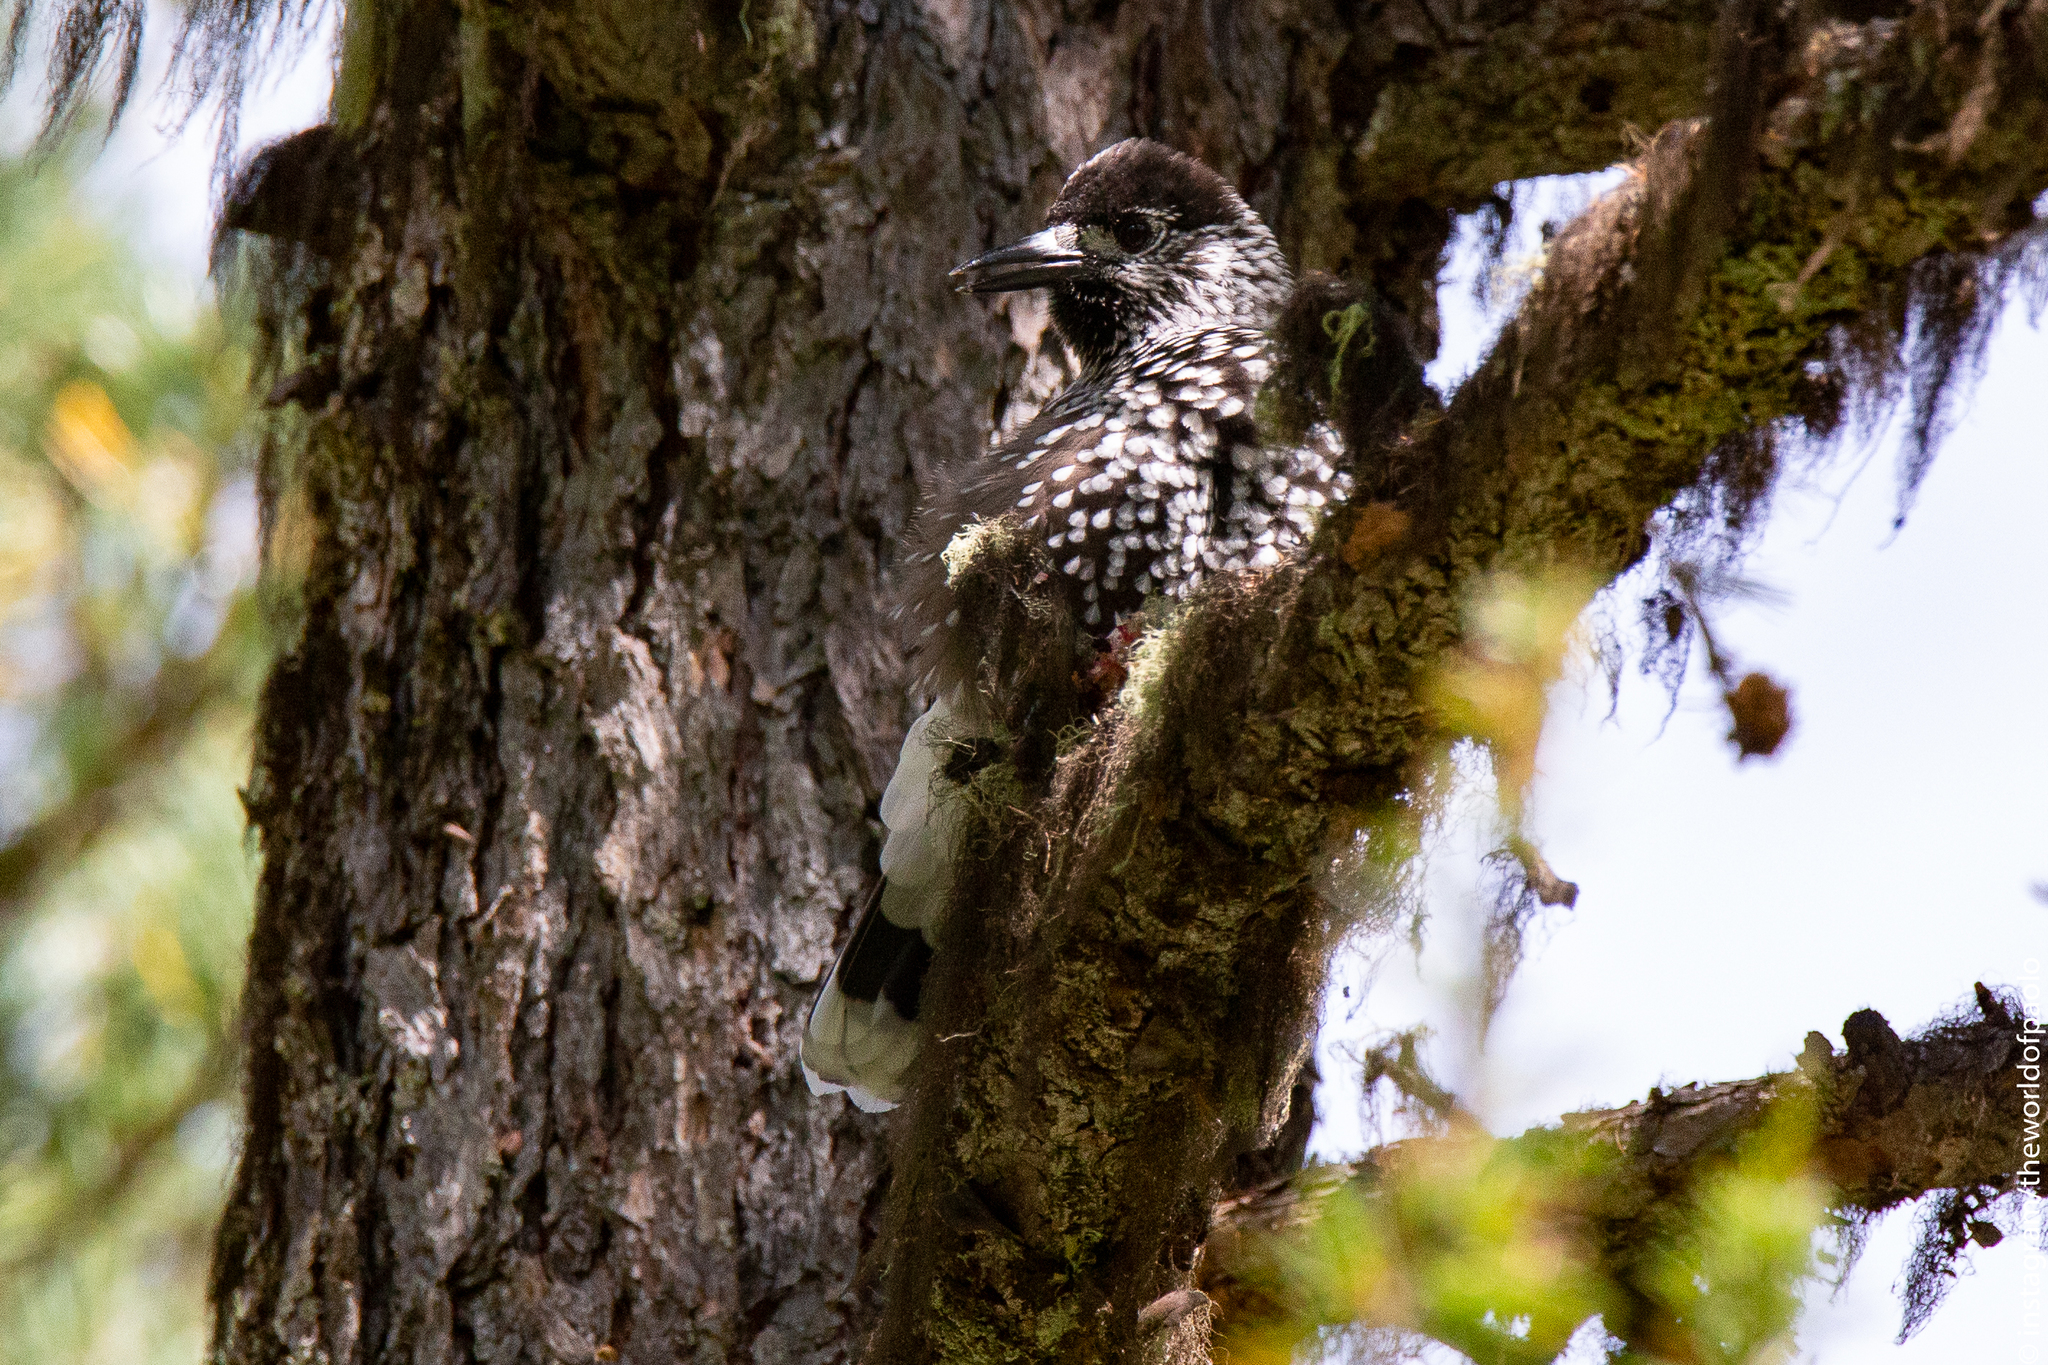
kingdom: Animalia
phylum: Chordata
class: Aves
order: Passeriformes
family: Corvidae
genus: Nucifraga
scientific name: Nucifraga caryocatactes
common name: Spotted nutcracker
